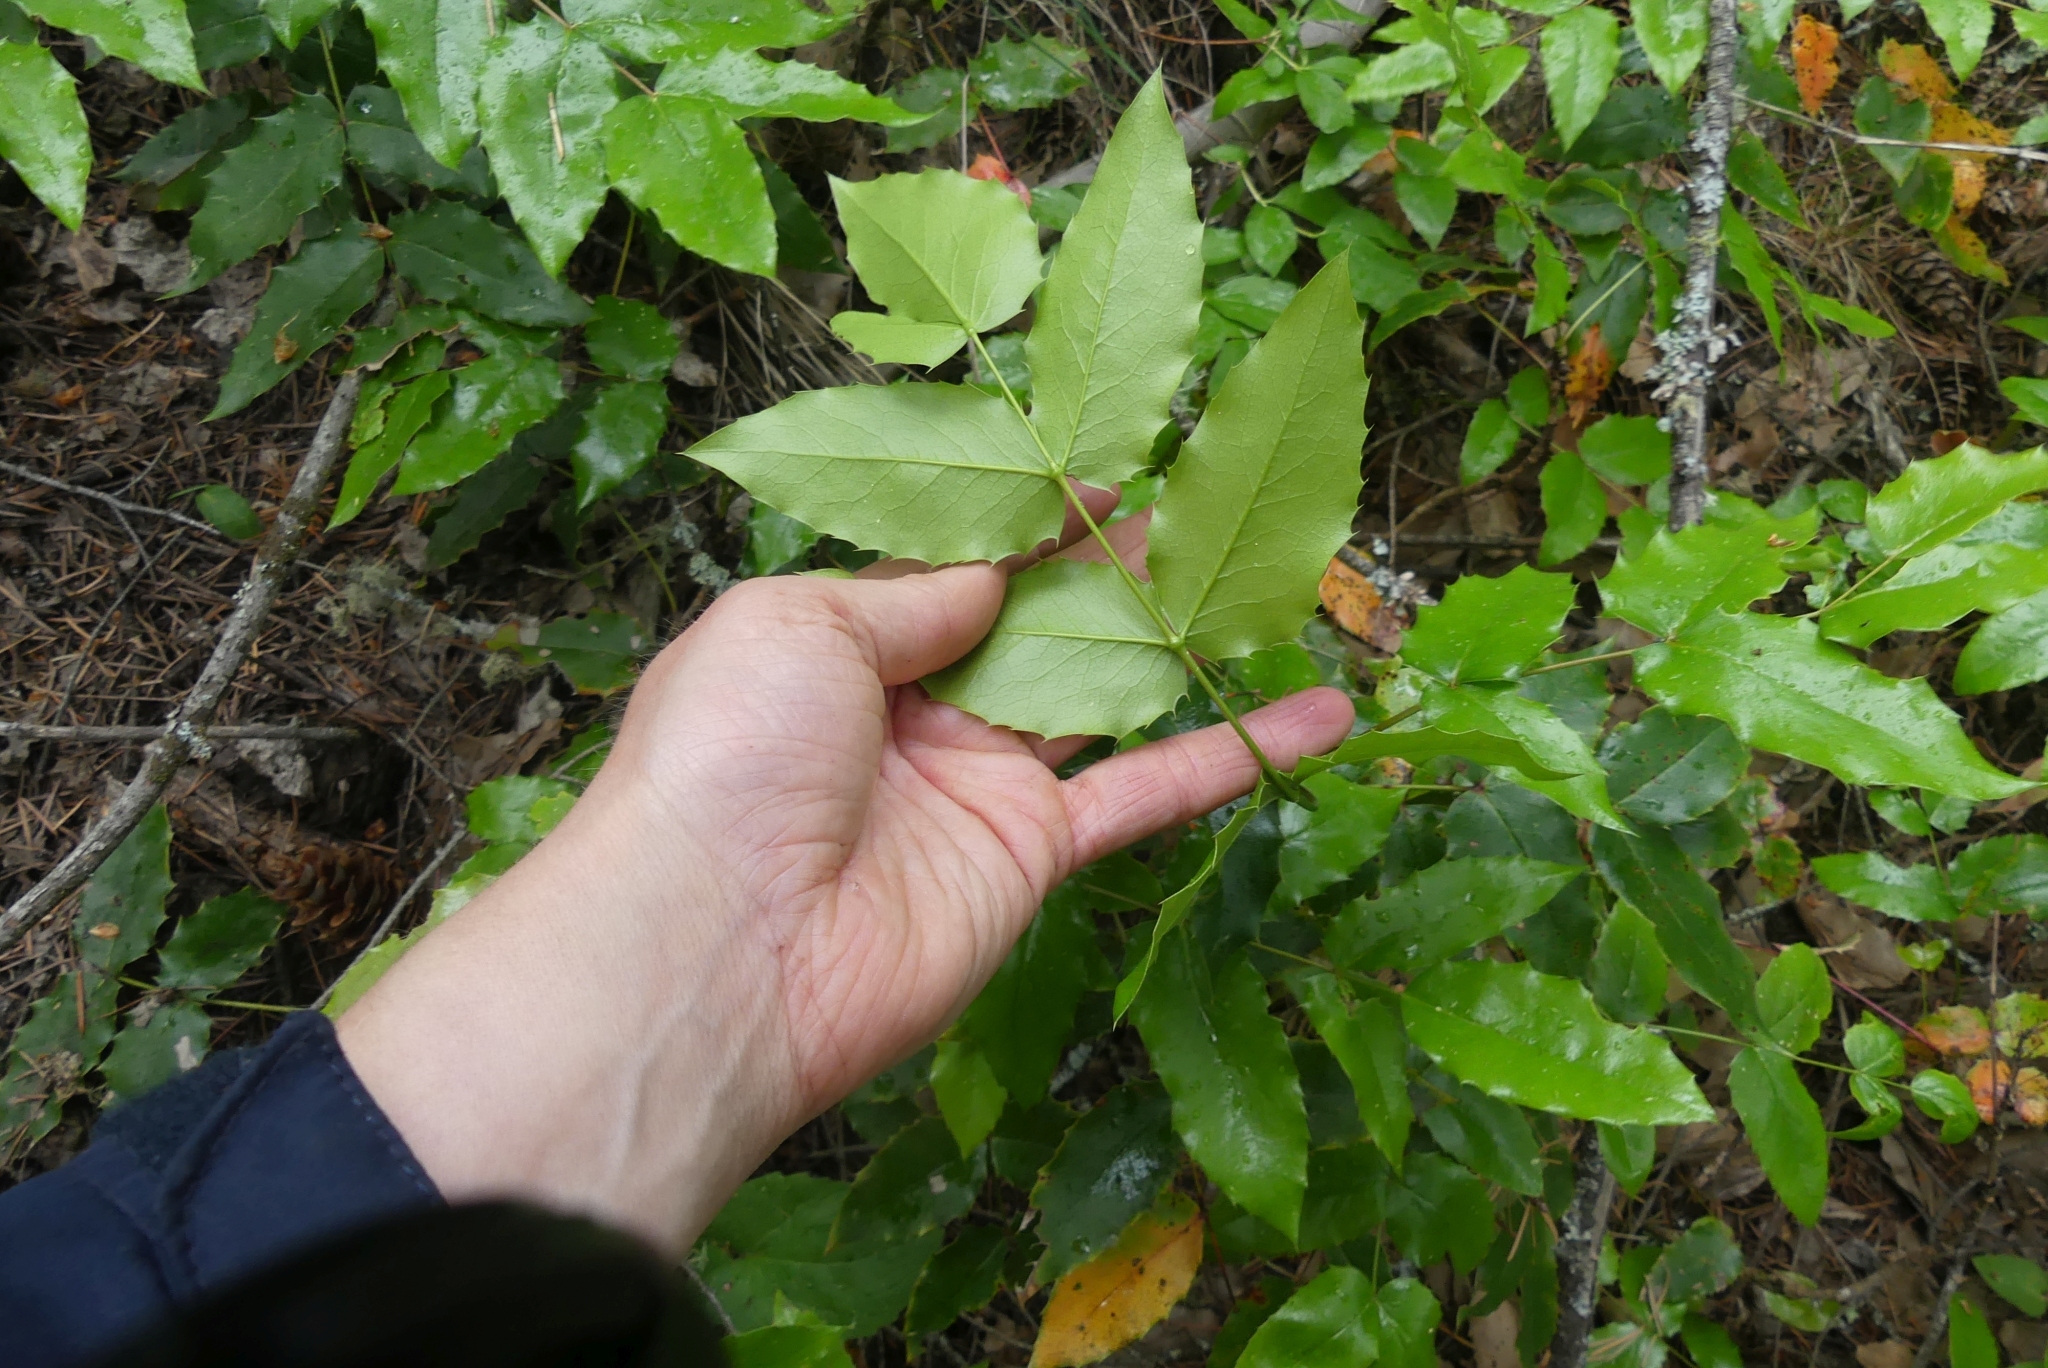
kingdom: Plantae
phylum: Tracheophyta
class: Magnoliopsida
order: Ranunculales
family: Berberidaceae
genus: Mahonia
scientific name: Mahonia aquifolium
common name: Oregon-grape
